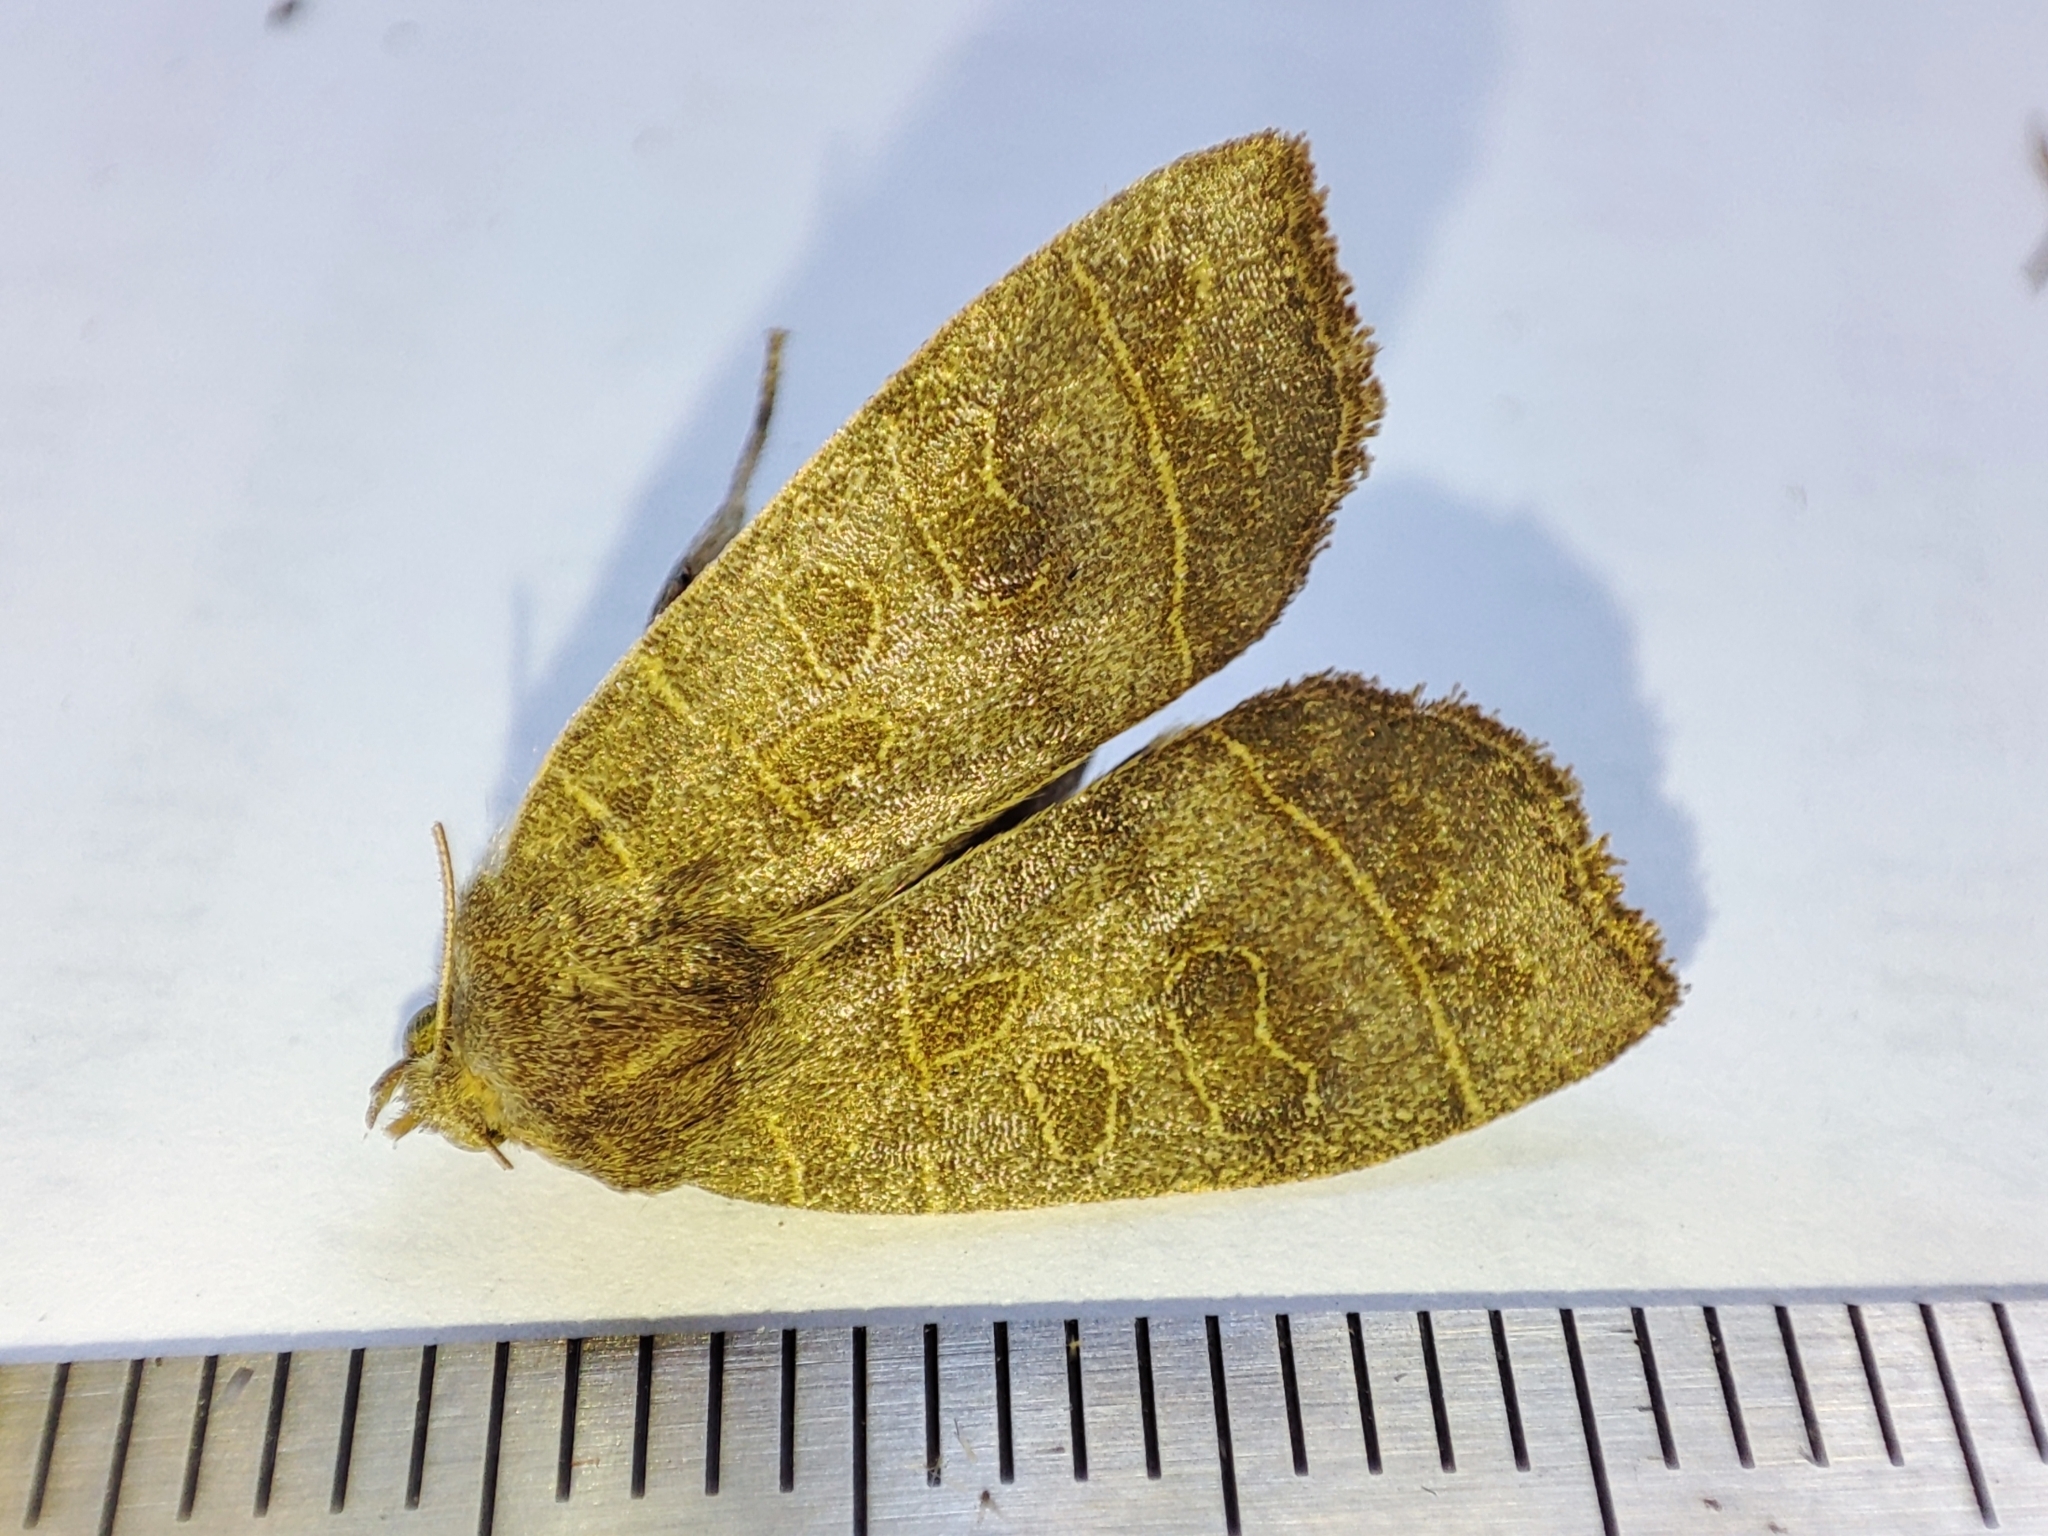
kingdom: Animalia
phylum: Arthropoda
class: Insecta
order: Lepidoptera
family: Noctuidae
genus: Ipimorpha
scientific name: Ipimorpha subtusa
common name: Olive
